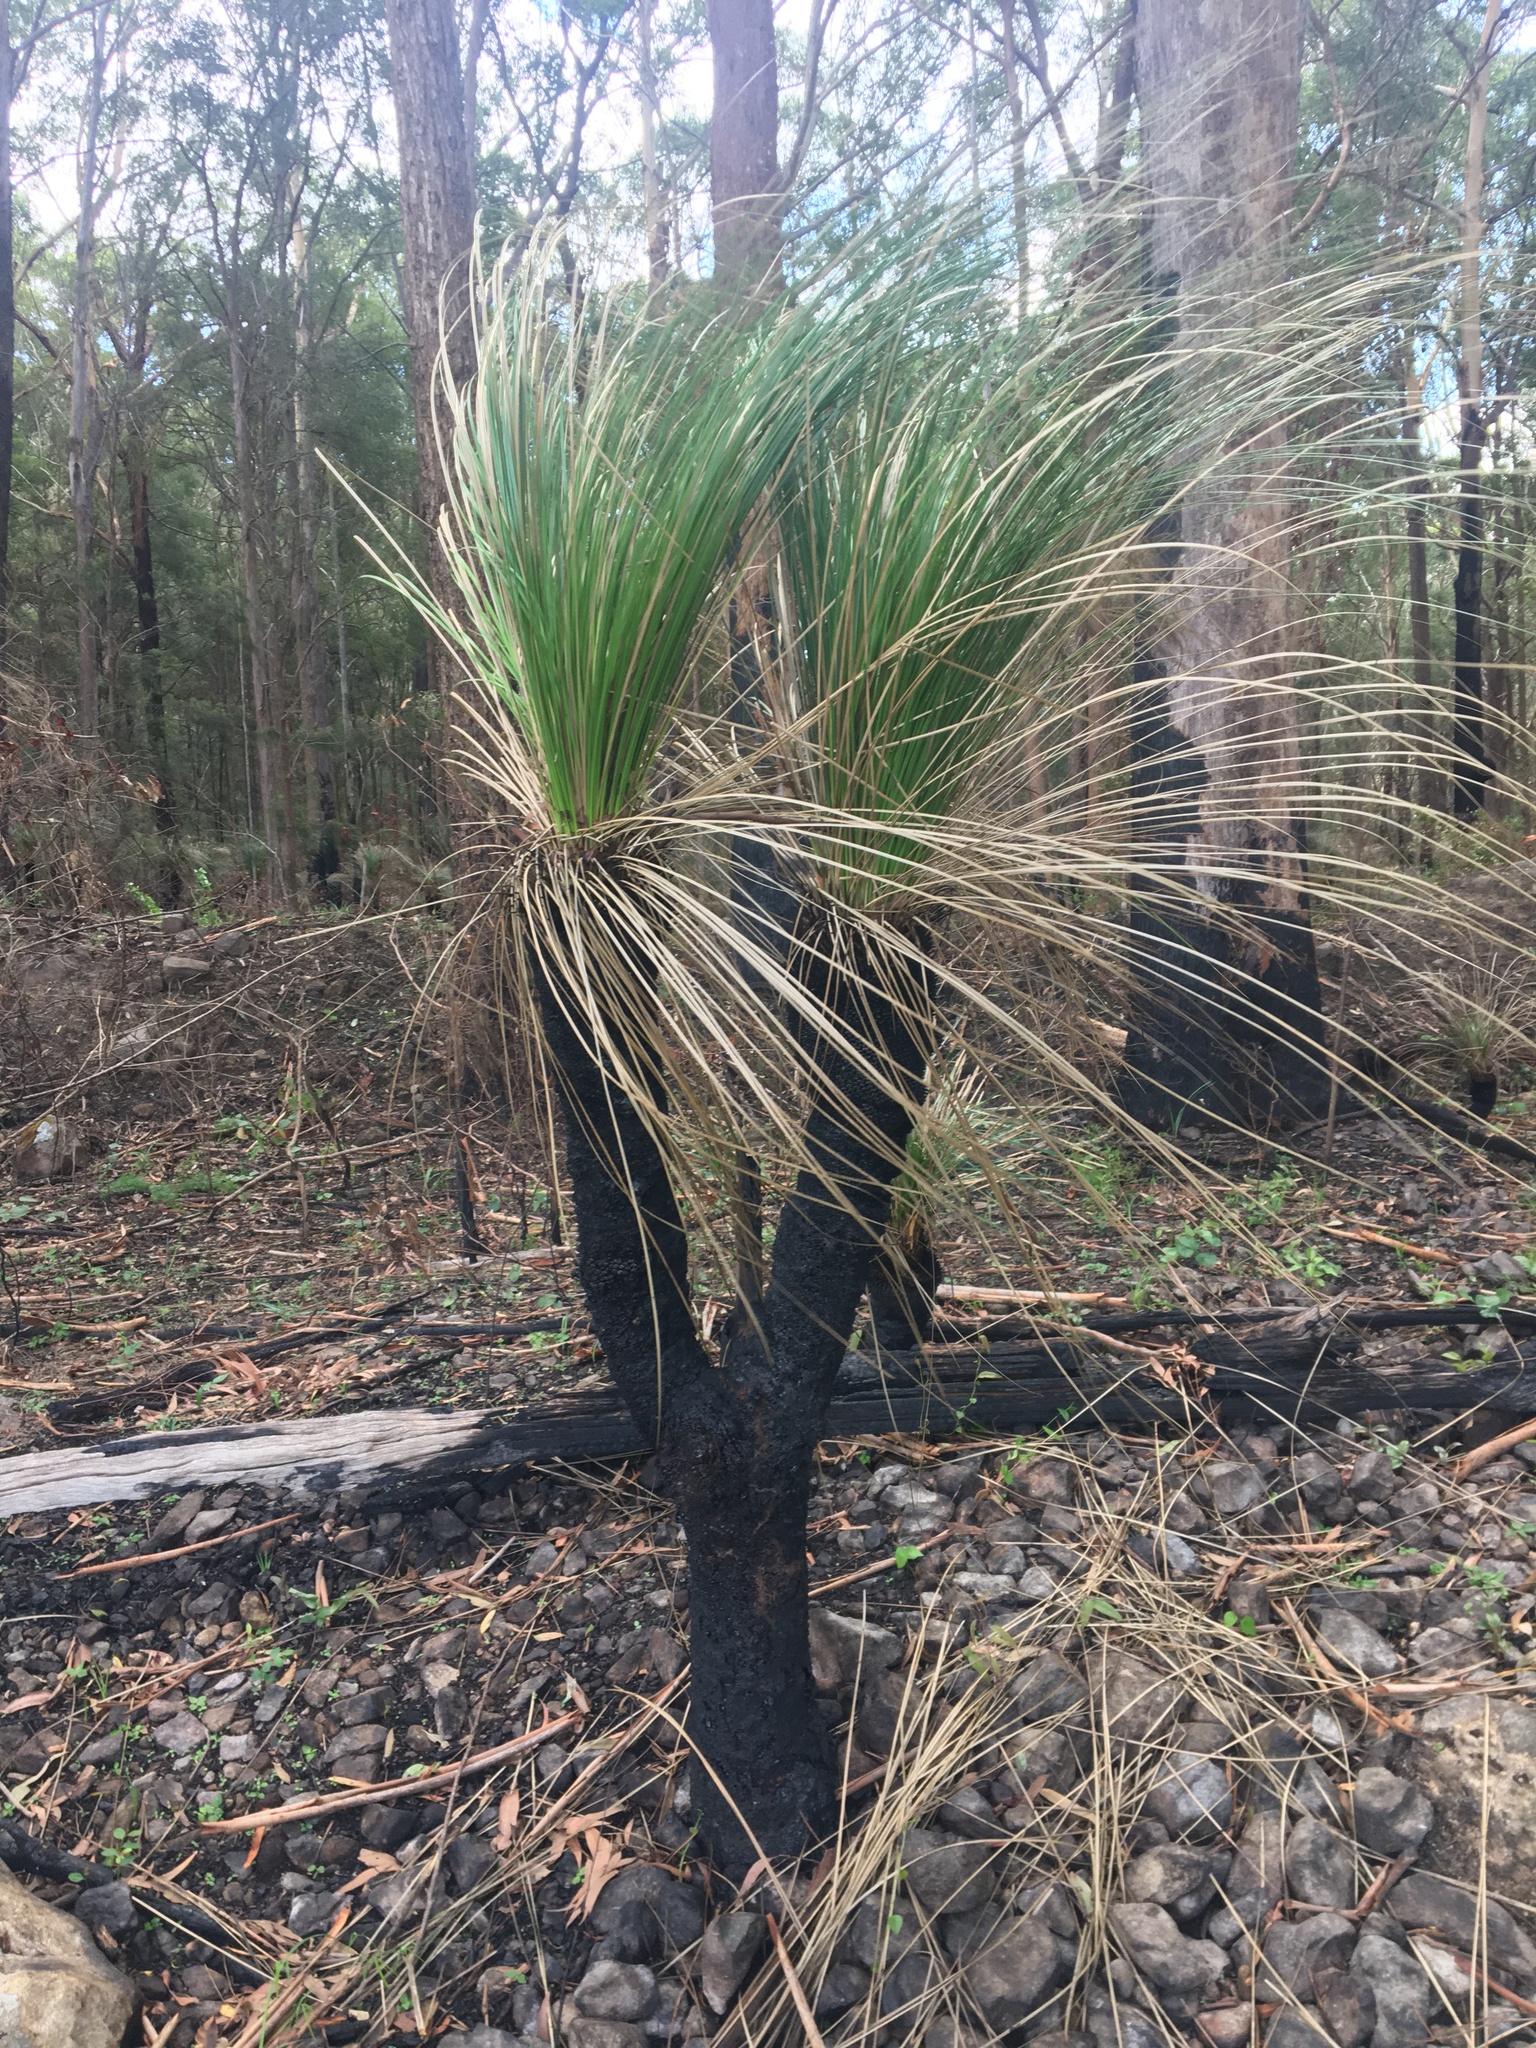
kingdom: Plantae
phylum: Tracheophyta
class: Liliopsida
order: Asparagales
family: Asphodelaceae
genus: Xanthorrhoea
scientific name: Xanthorrhoea malacophylla
